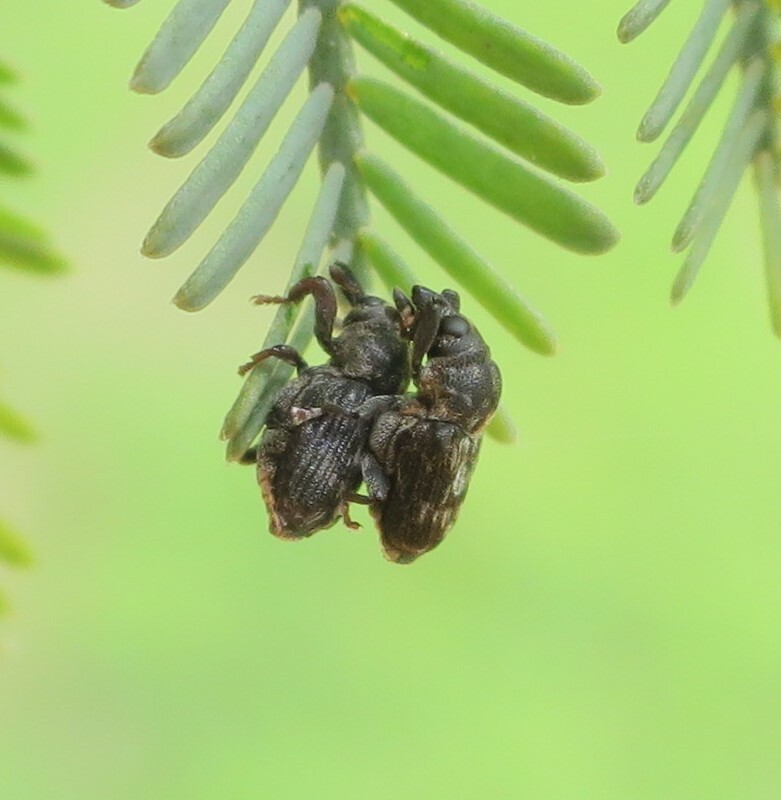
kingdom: Animalia
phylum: Arthropoda
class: Insecta
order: Coleoptera
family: Curculionidae
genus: Neolaemosaccus
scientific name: Neolaemosaccus narinus
